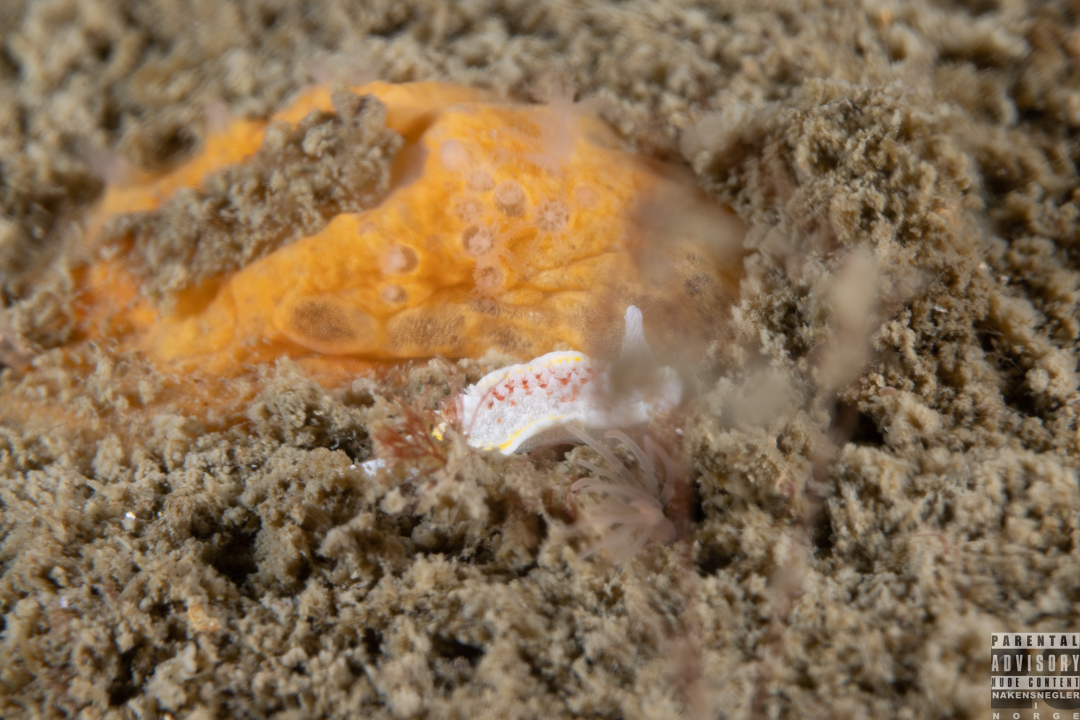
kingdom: Animalia
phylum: Mollusca
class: Gastropoda
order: Nudibranchia
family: Calycidorididae
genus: Diaphorodoris
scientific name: Diaphorodoris luteocincta
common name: Fried egg nudibranch
